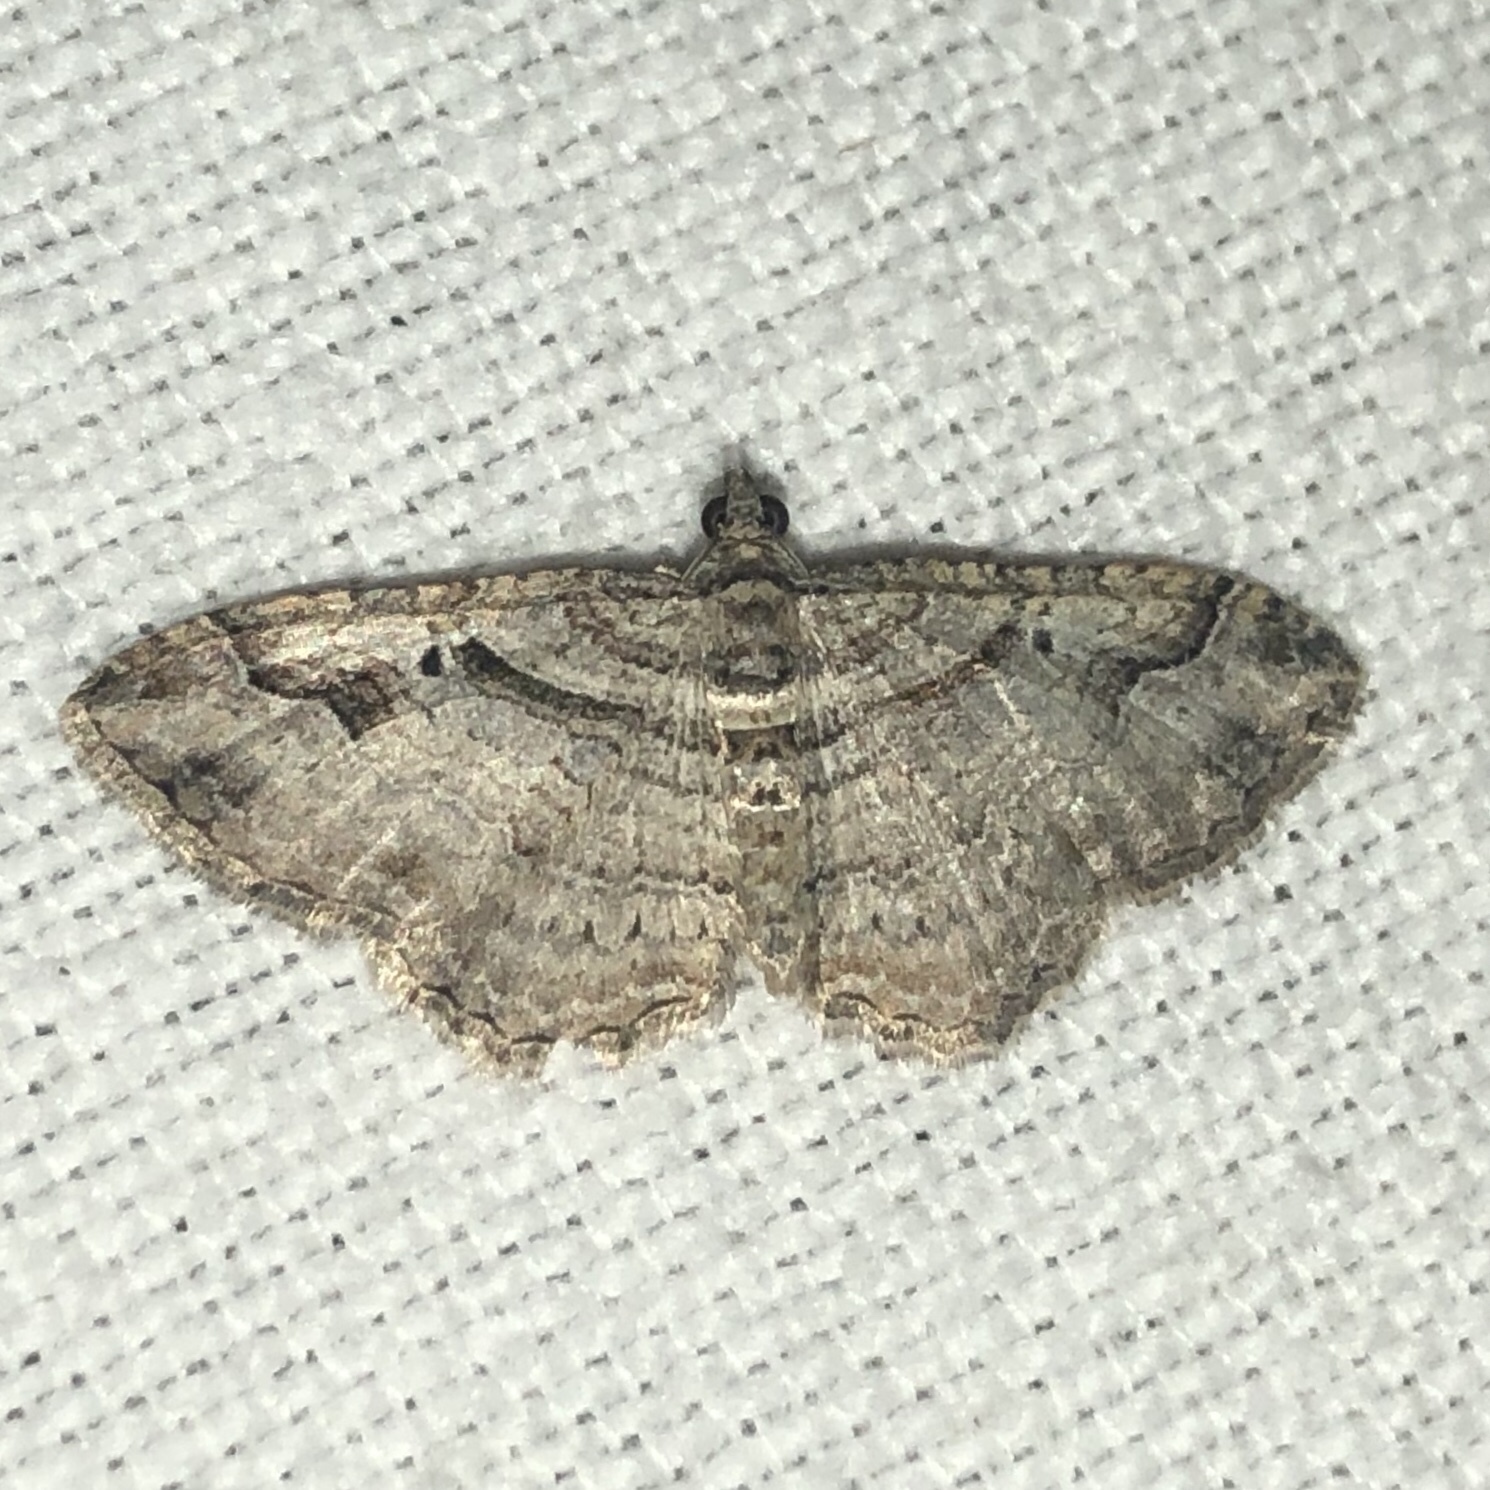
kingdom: Animalia
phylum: Arthropoda
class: Insecta
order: Lepidoptera
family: Geometridae
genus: Costaconvexa
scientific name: Costaconvexa centrostrigaria
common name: Bent-line carpet
